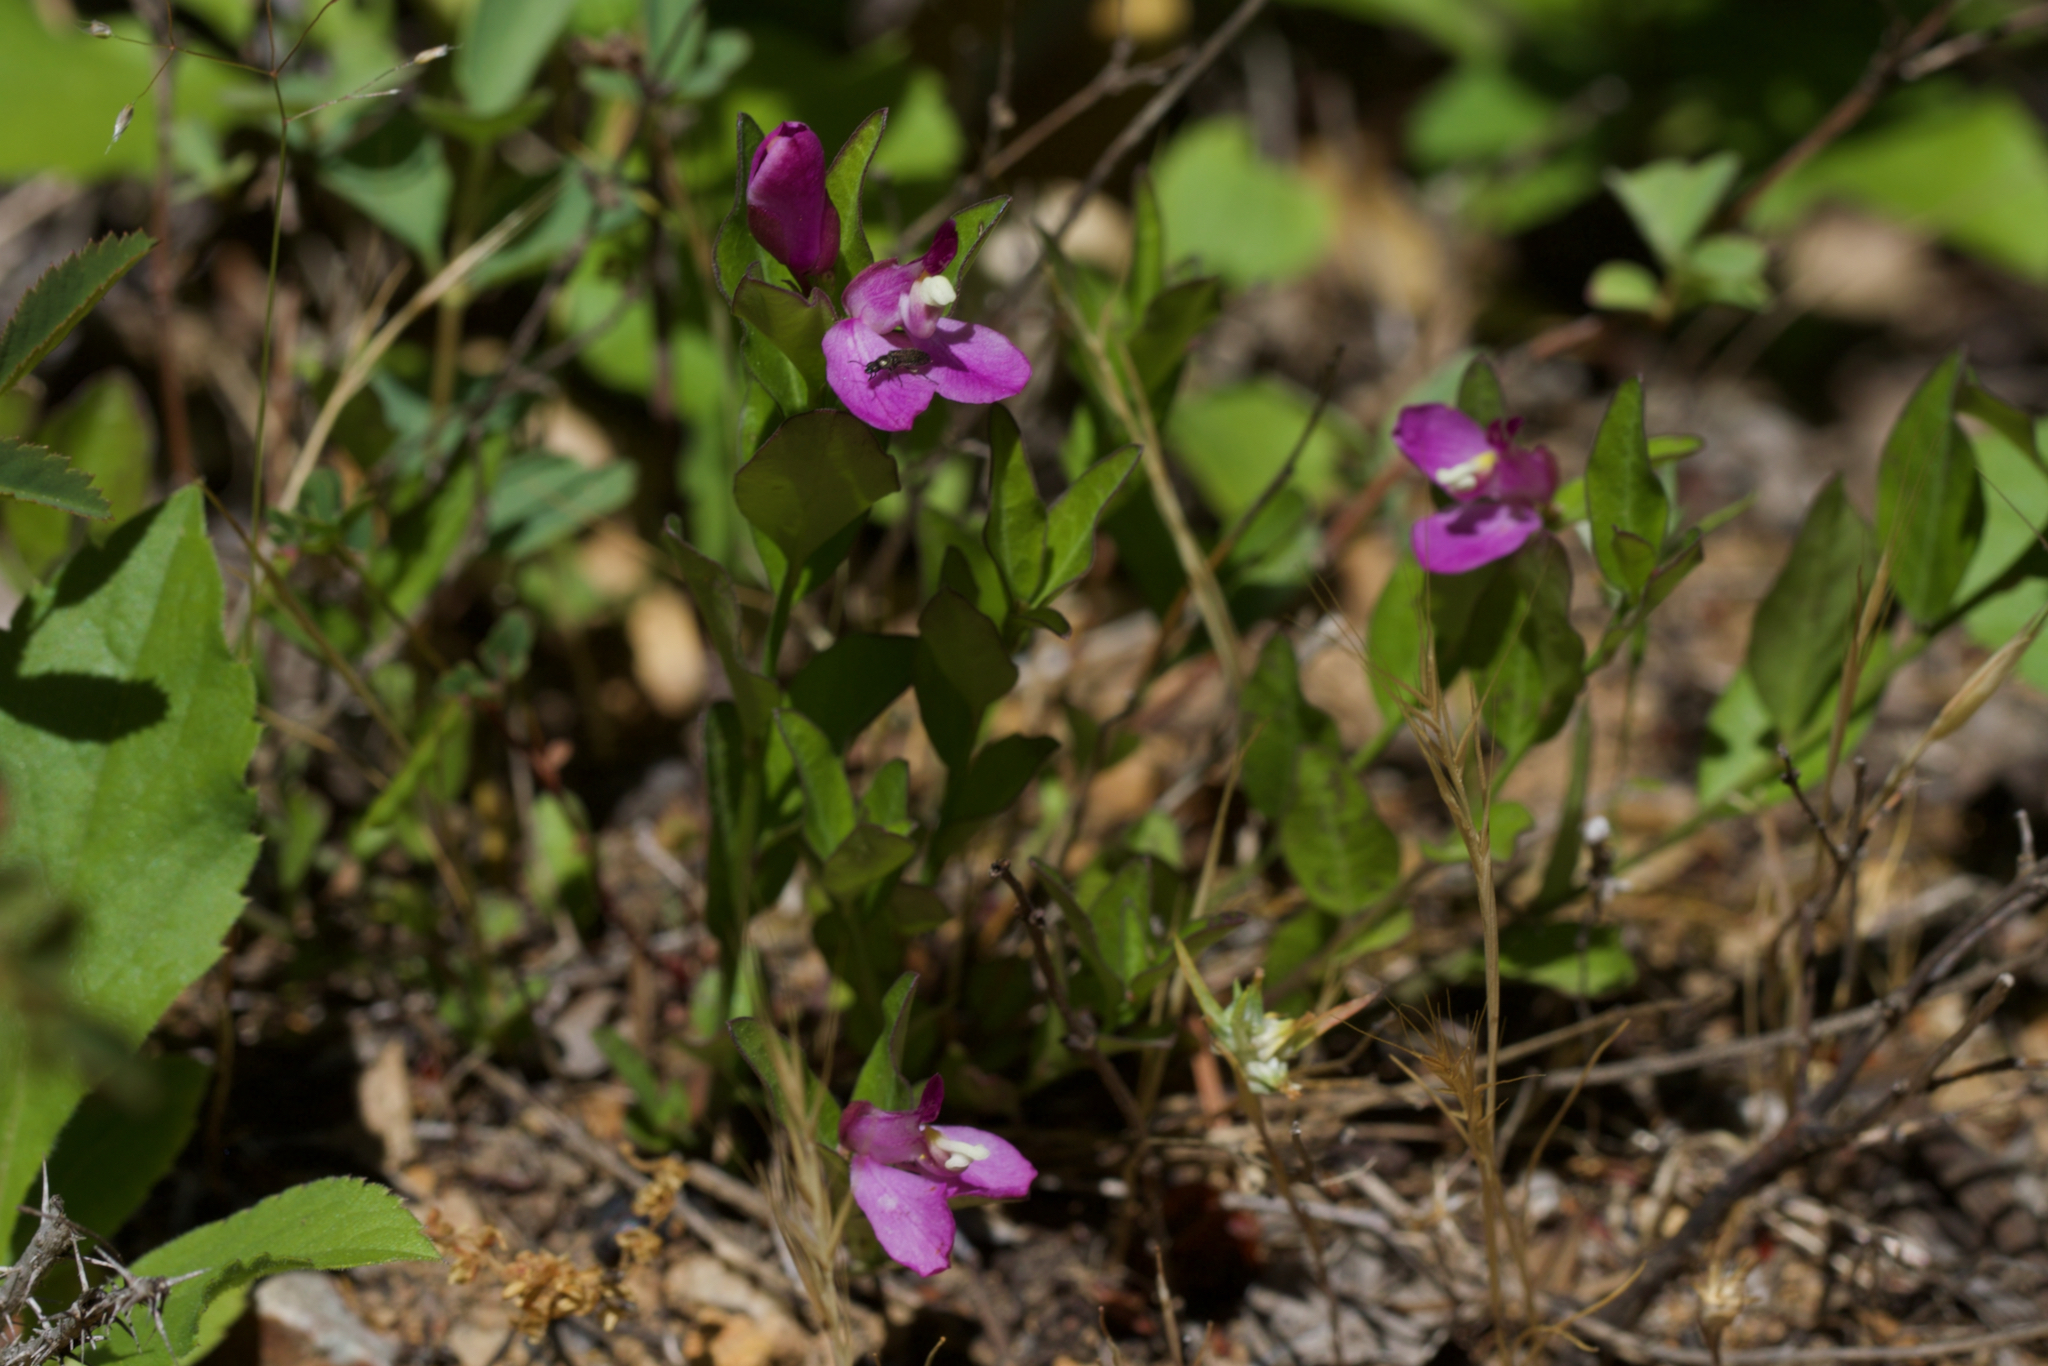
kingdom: Plantae
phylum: Tracheophyta
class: Magnoliopsida
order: Fabales
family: Polygalaceae
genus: Rhinotropis
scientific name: Rhinotropis californica
